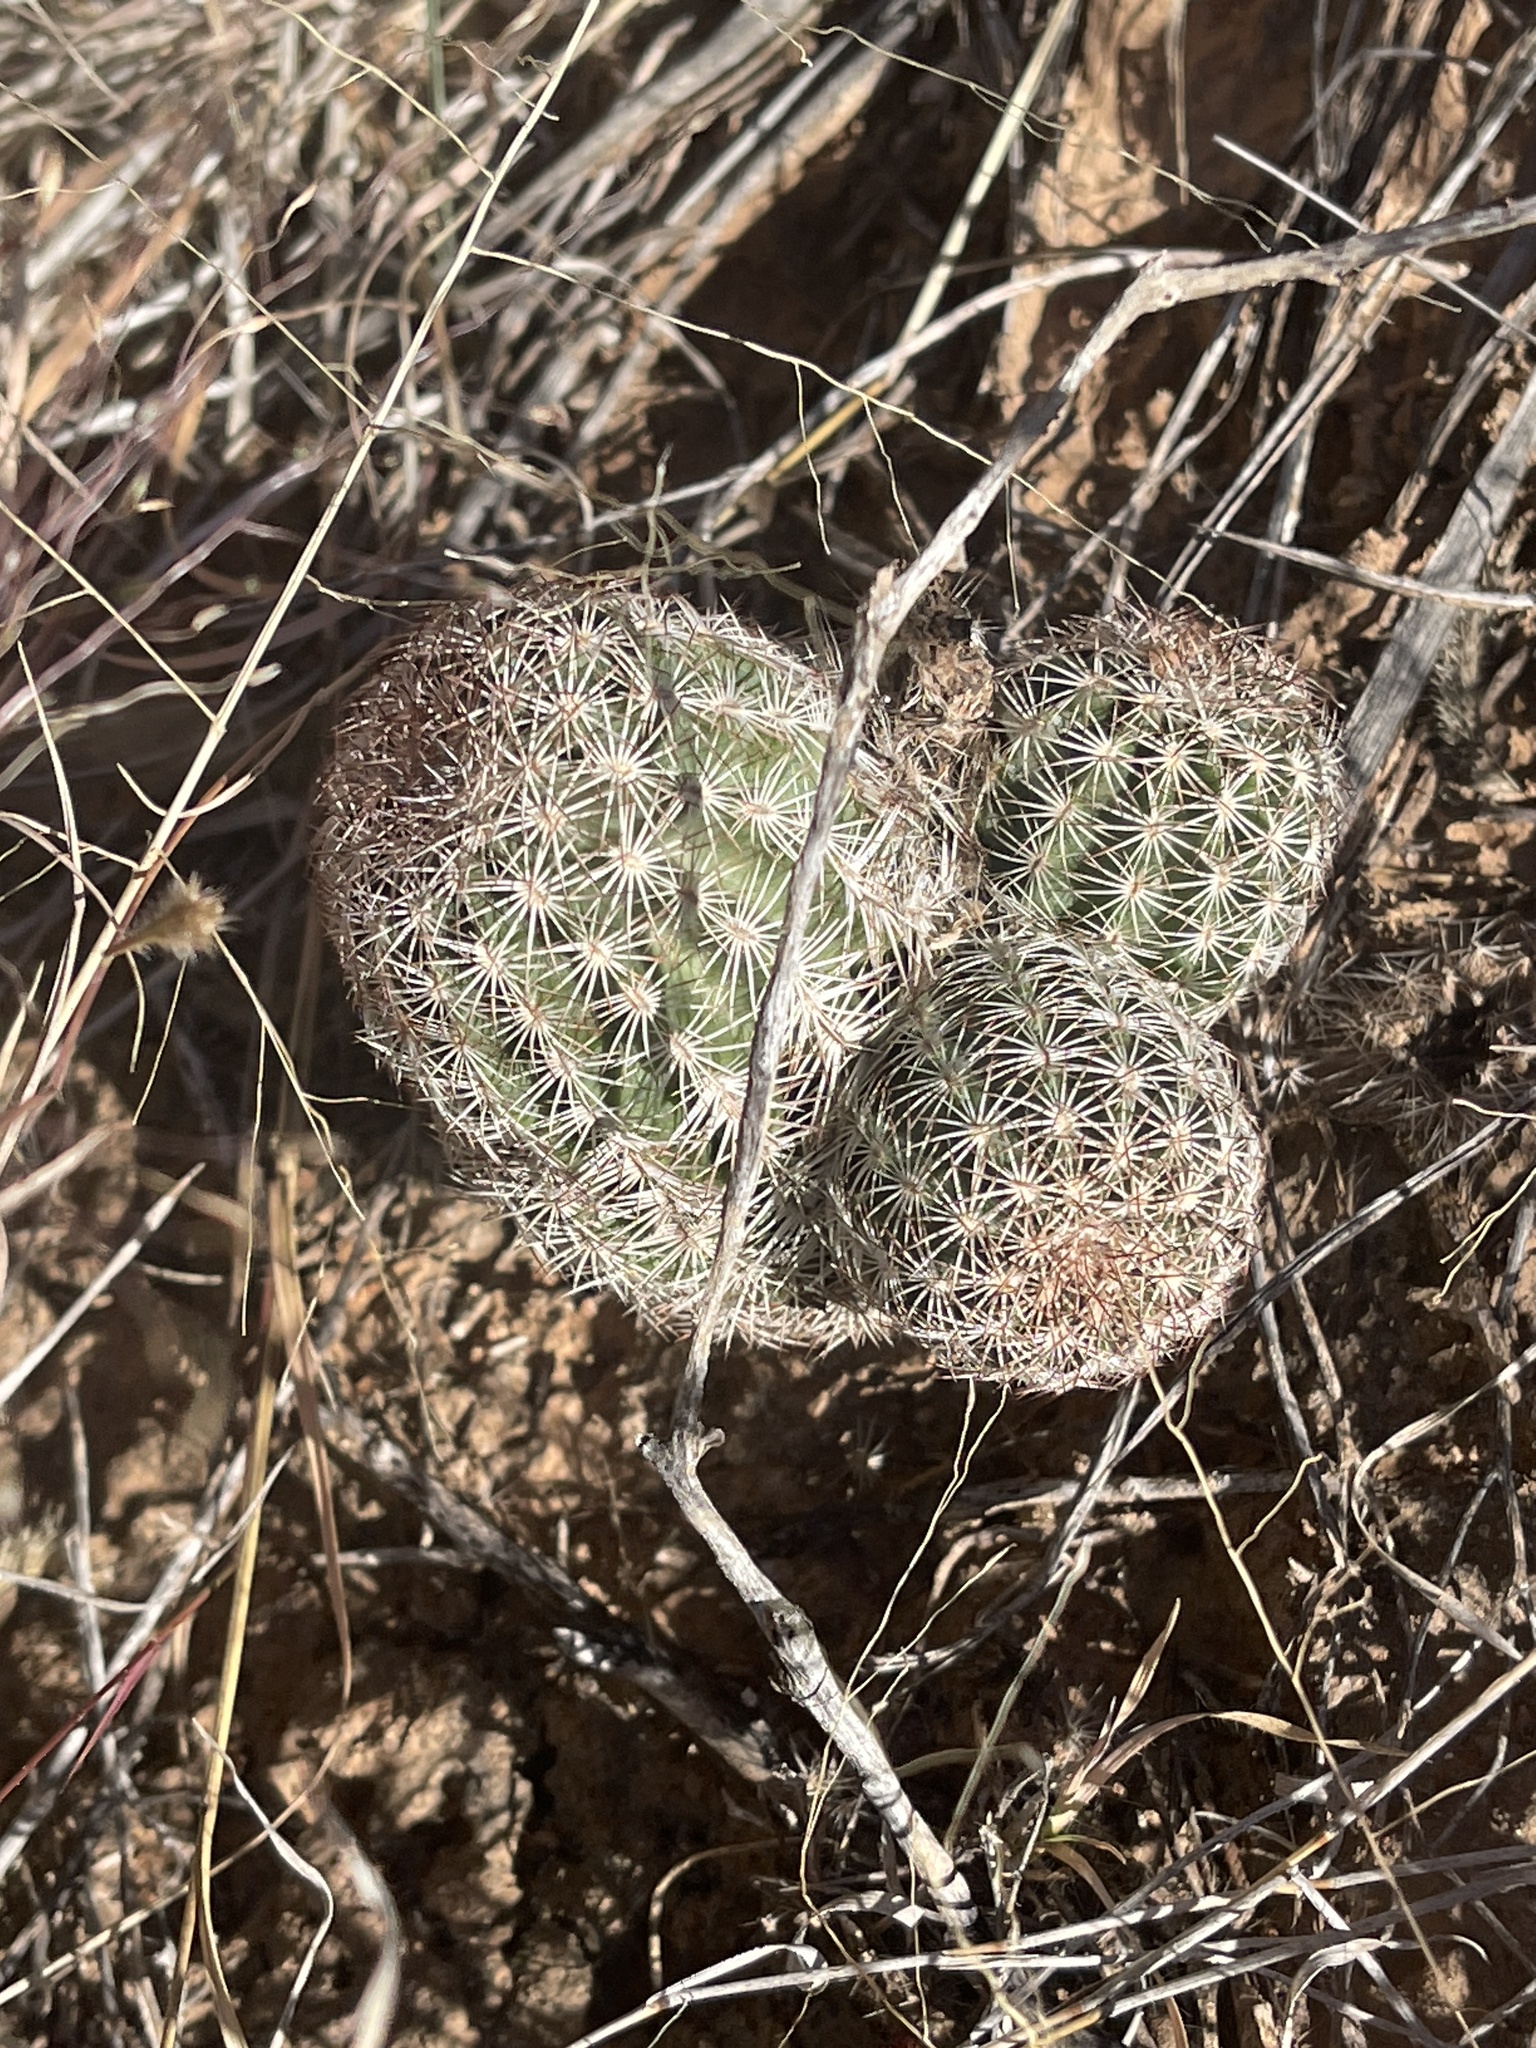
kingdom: Plantae
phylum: Tracheophyta
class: Magnoliopsida
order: Caryophyllales
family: Cactaceae
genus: Echinocereus
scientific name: Echinocereus reichenbachii
